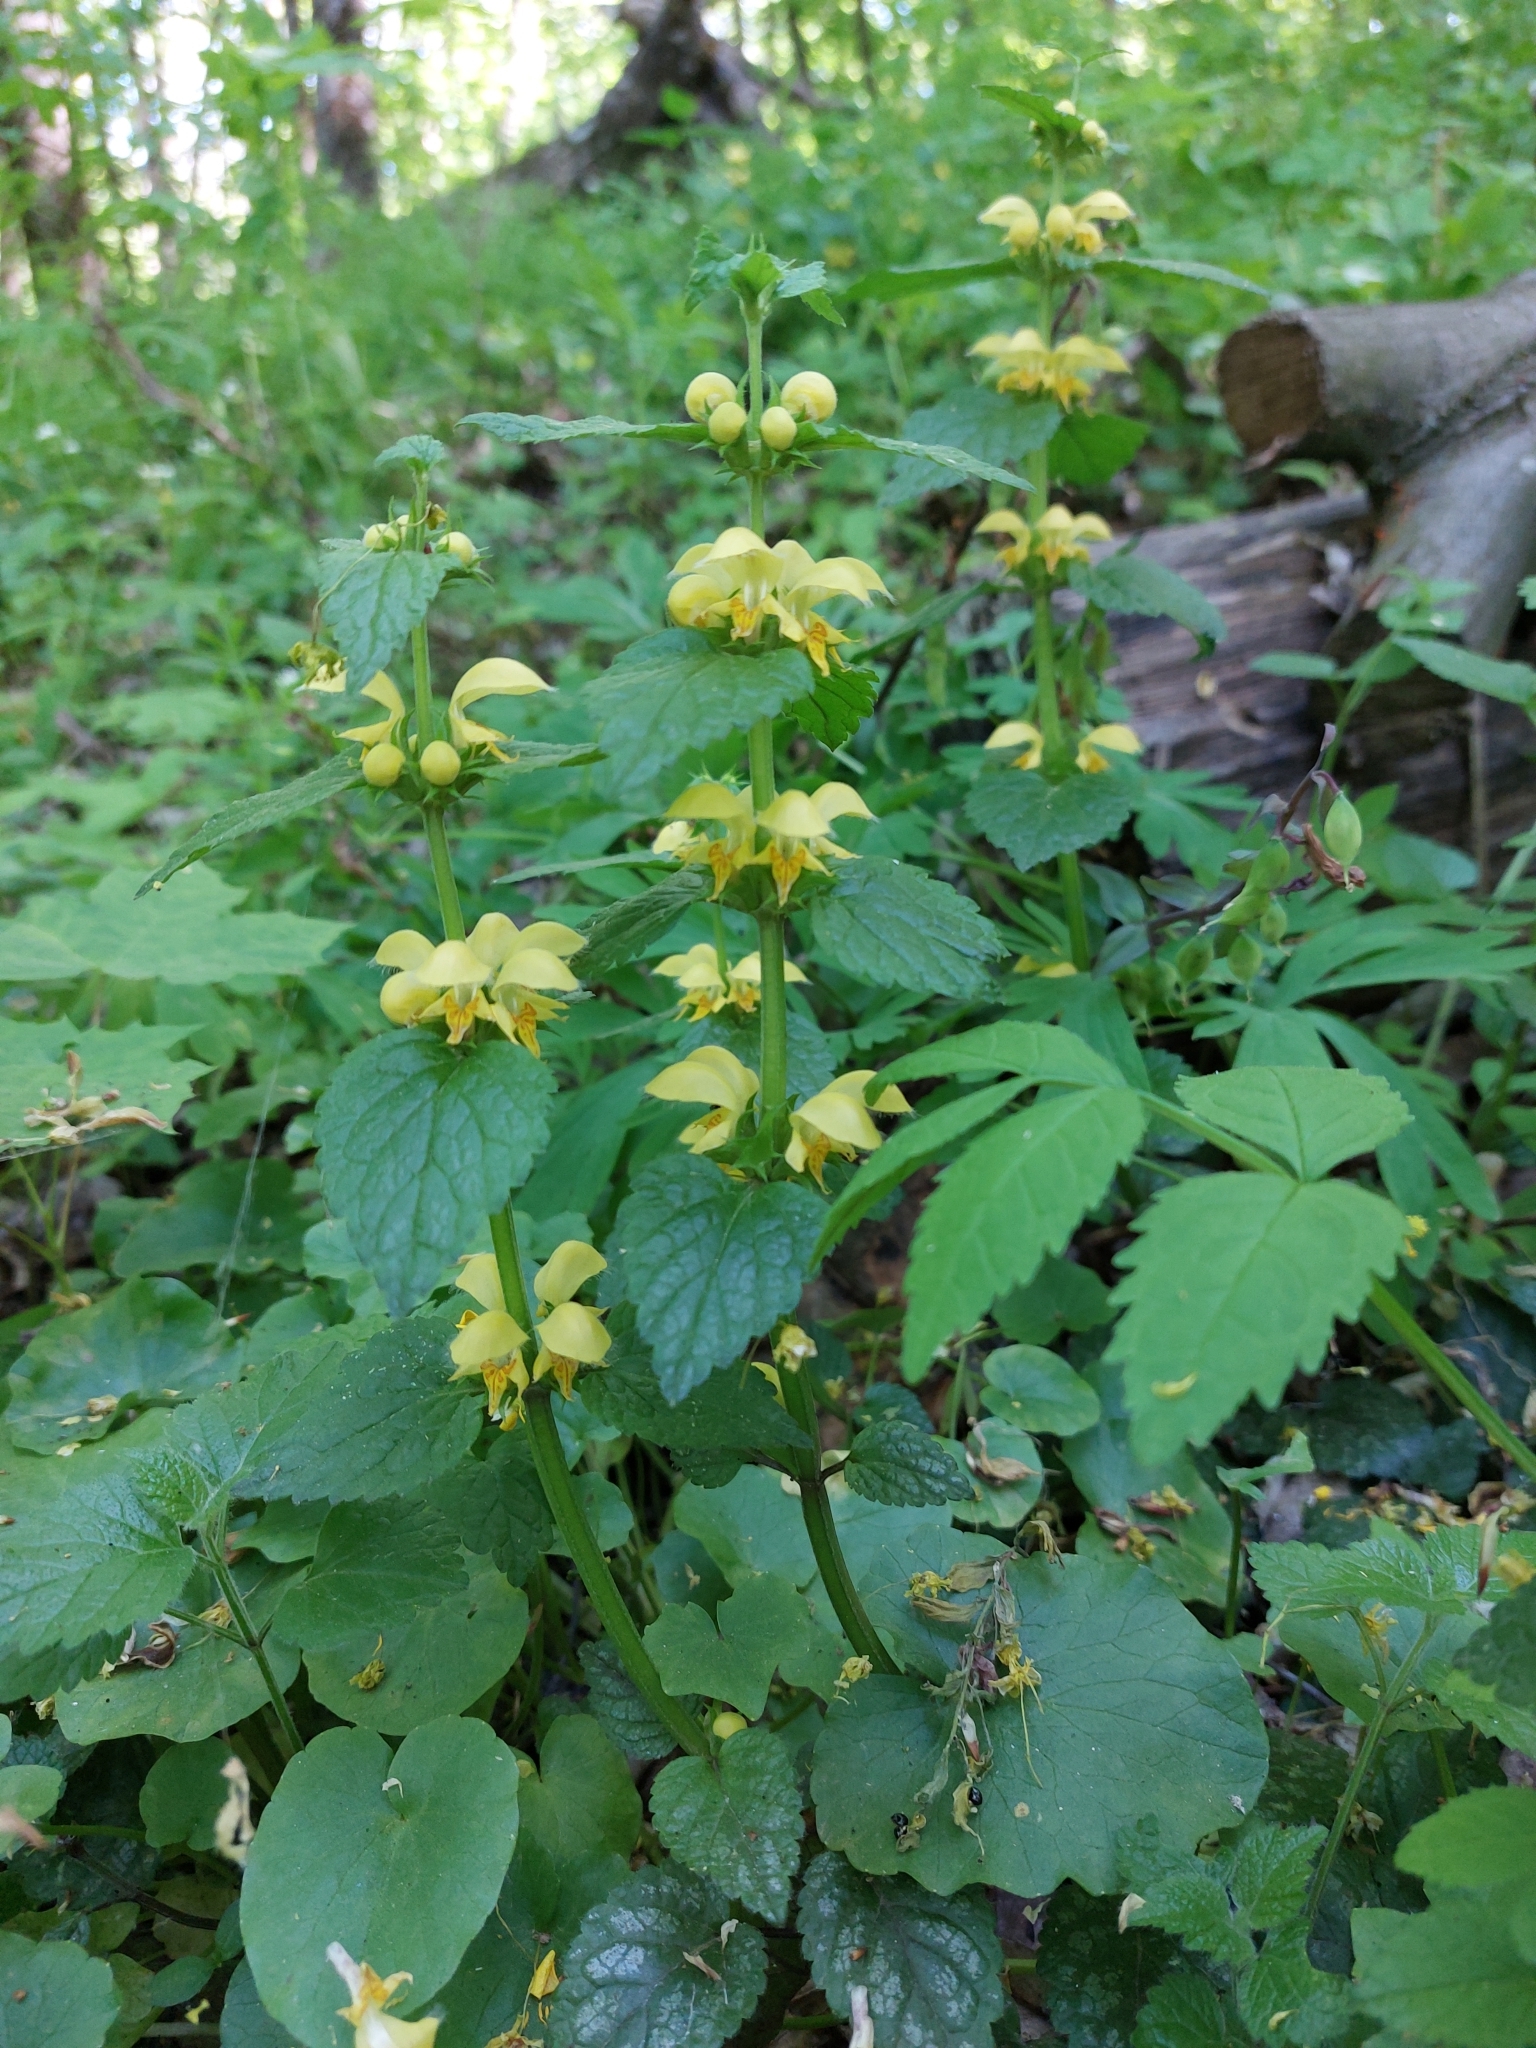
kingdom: Plantae
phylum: Tracheophyta
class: Magnoliopsida
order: Lamiales
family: Lamiaceae
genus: Lamium
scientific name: Lamium galeobdolon
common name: Yellow archangel
